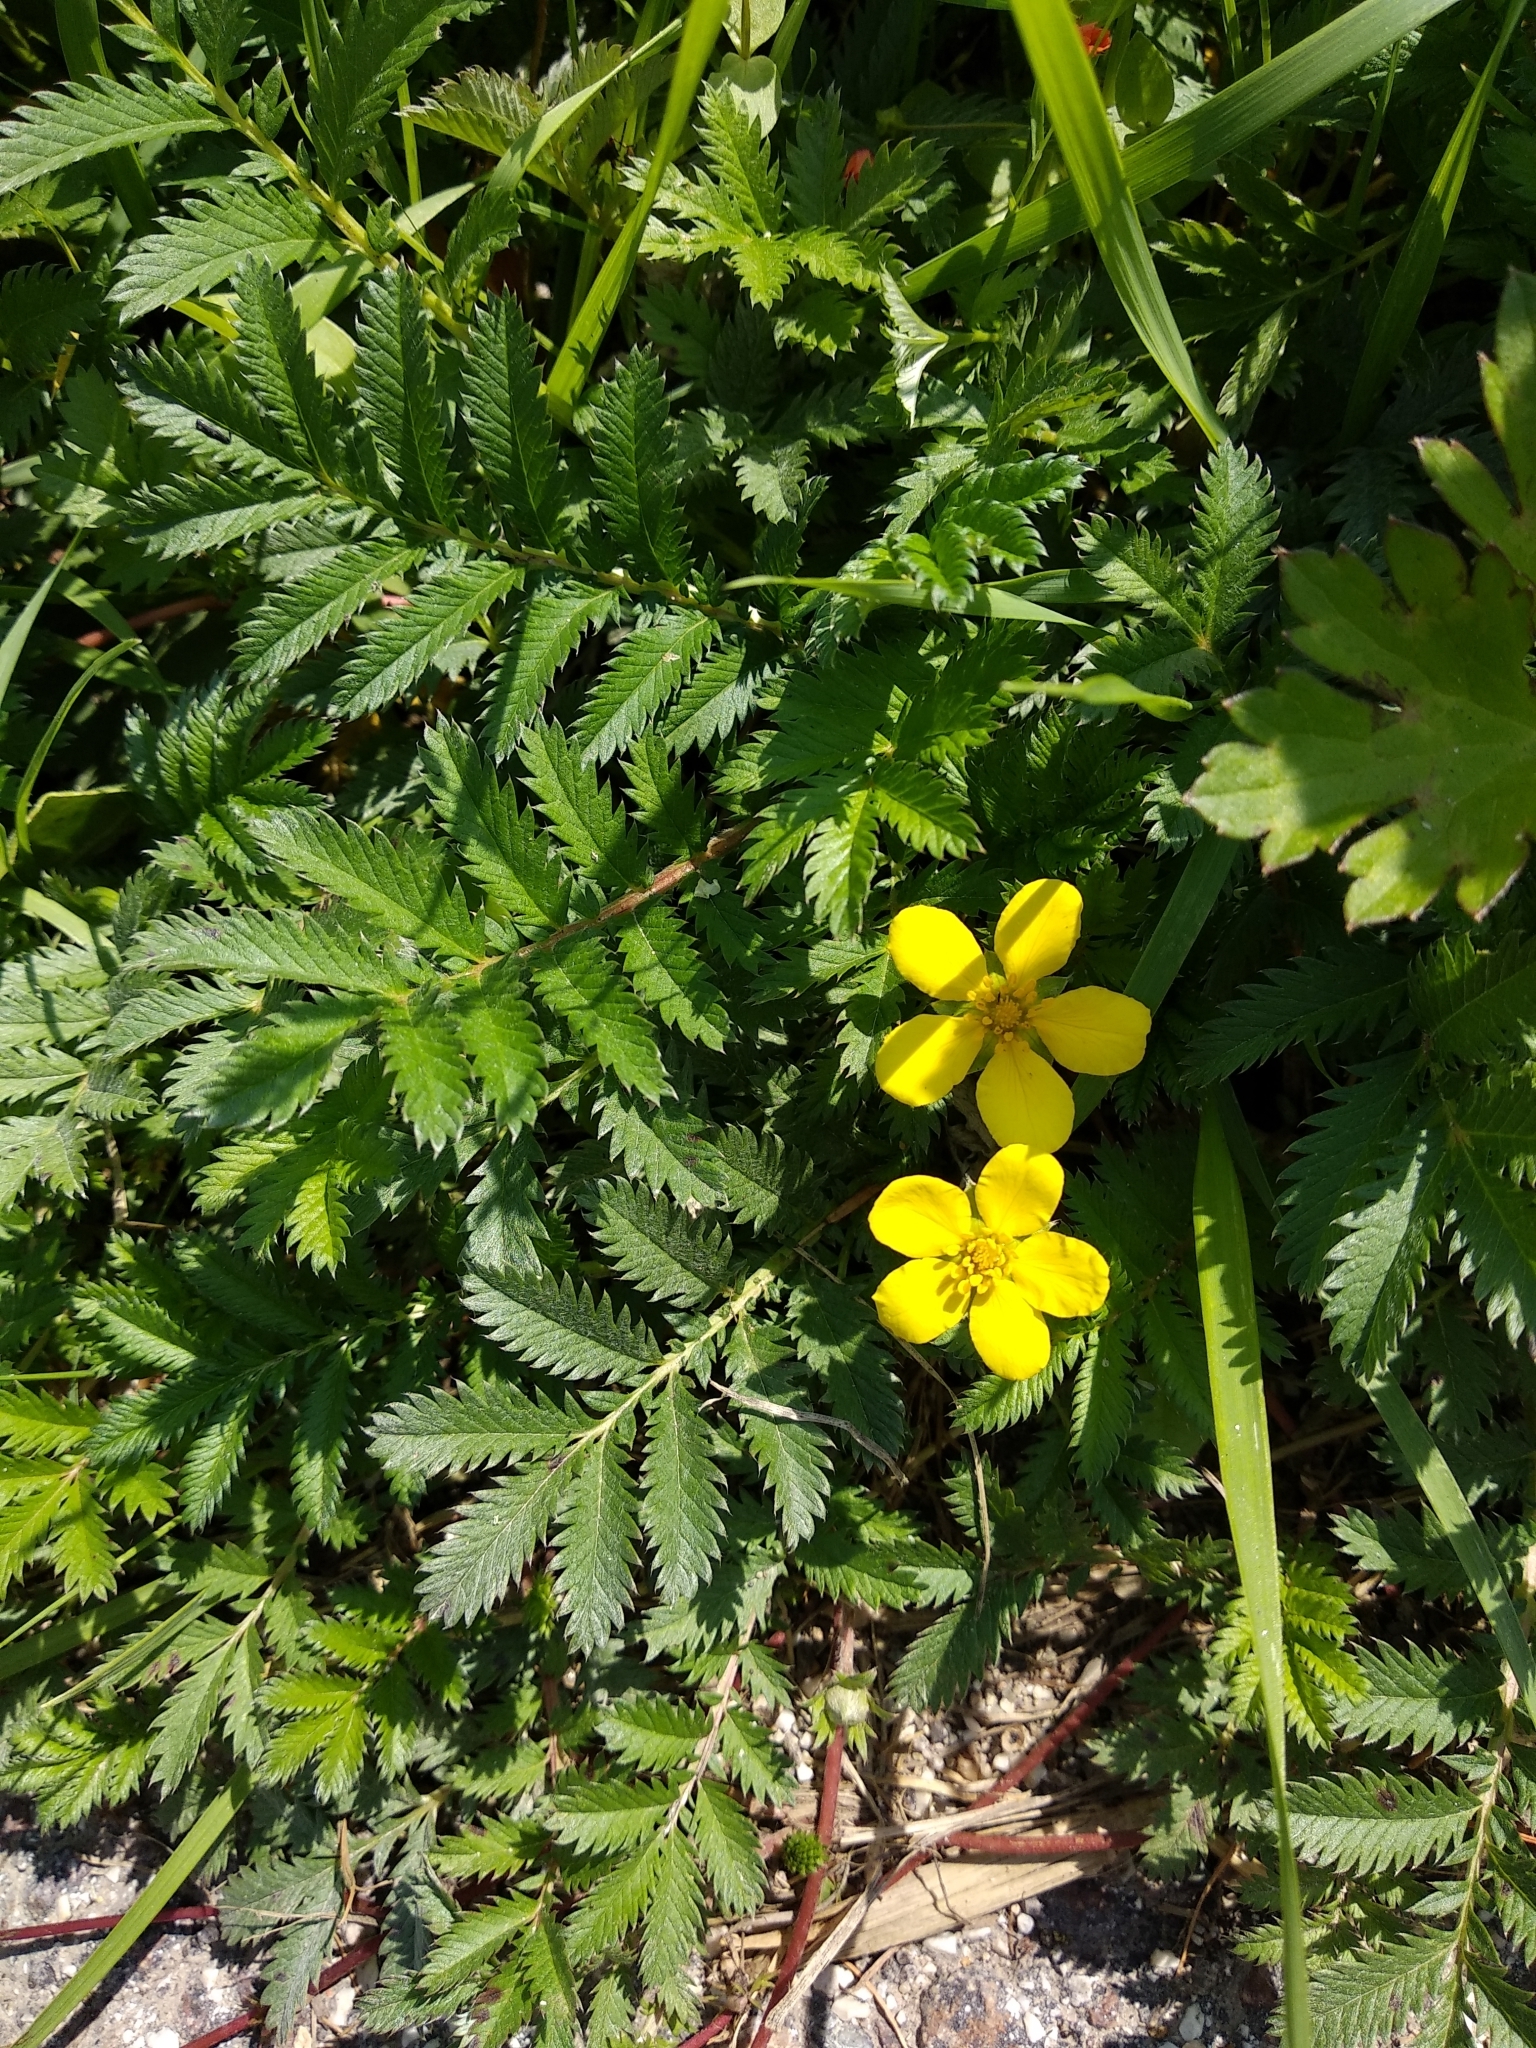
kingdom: Plantae
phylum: Tracheophyta
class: Magnoliopsida
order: Rosales
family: Rosaceae
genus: Argentina
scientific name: Argentina anserina
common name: Common silverweed
